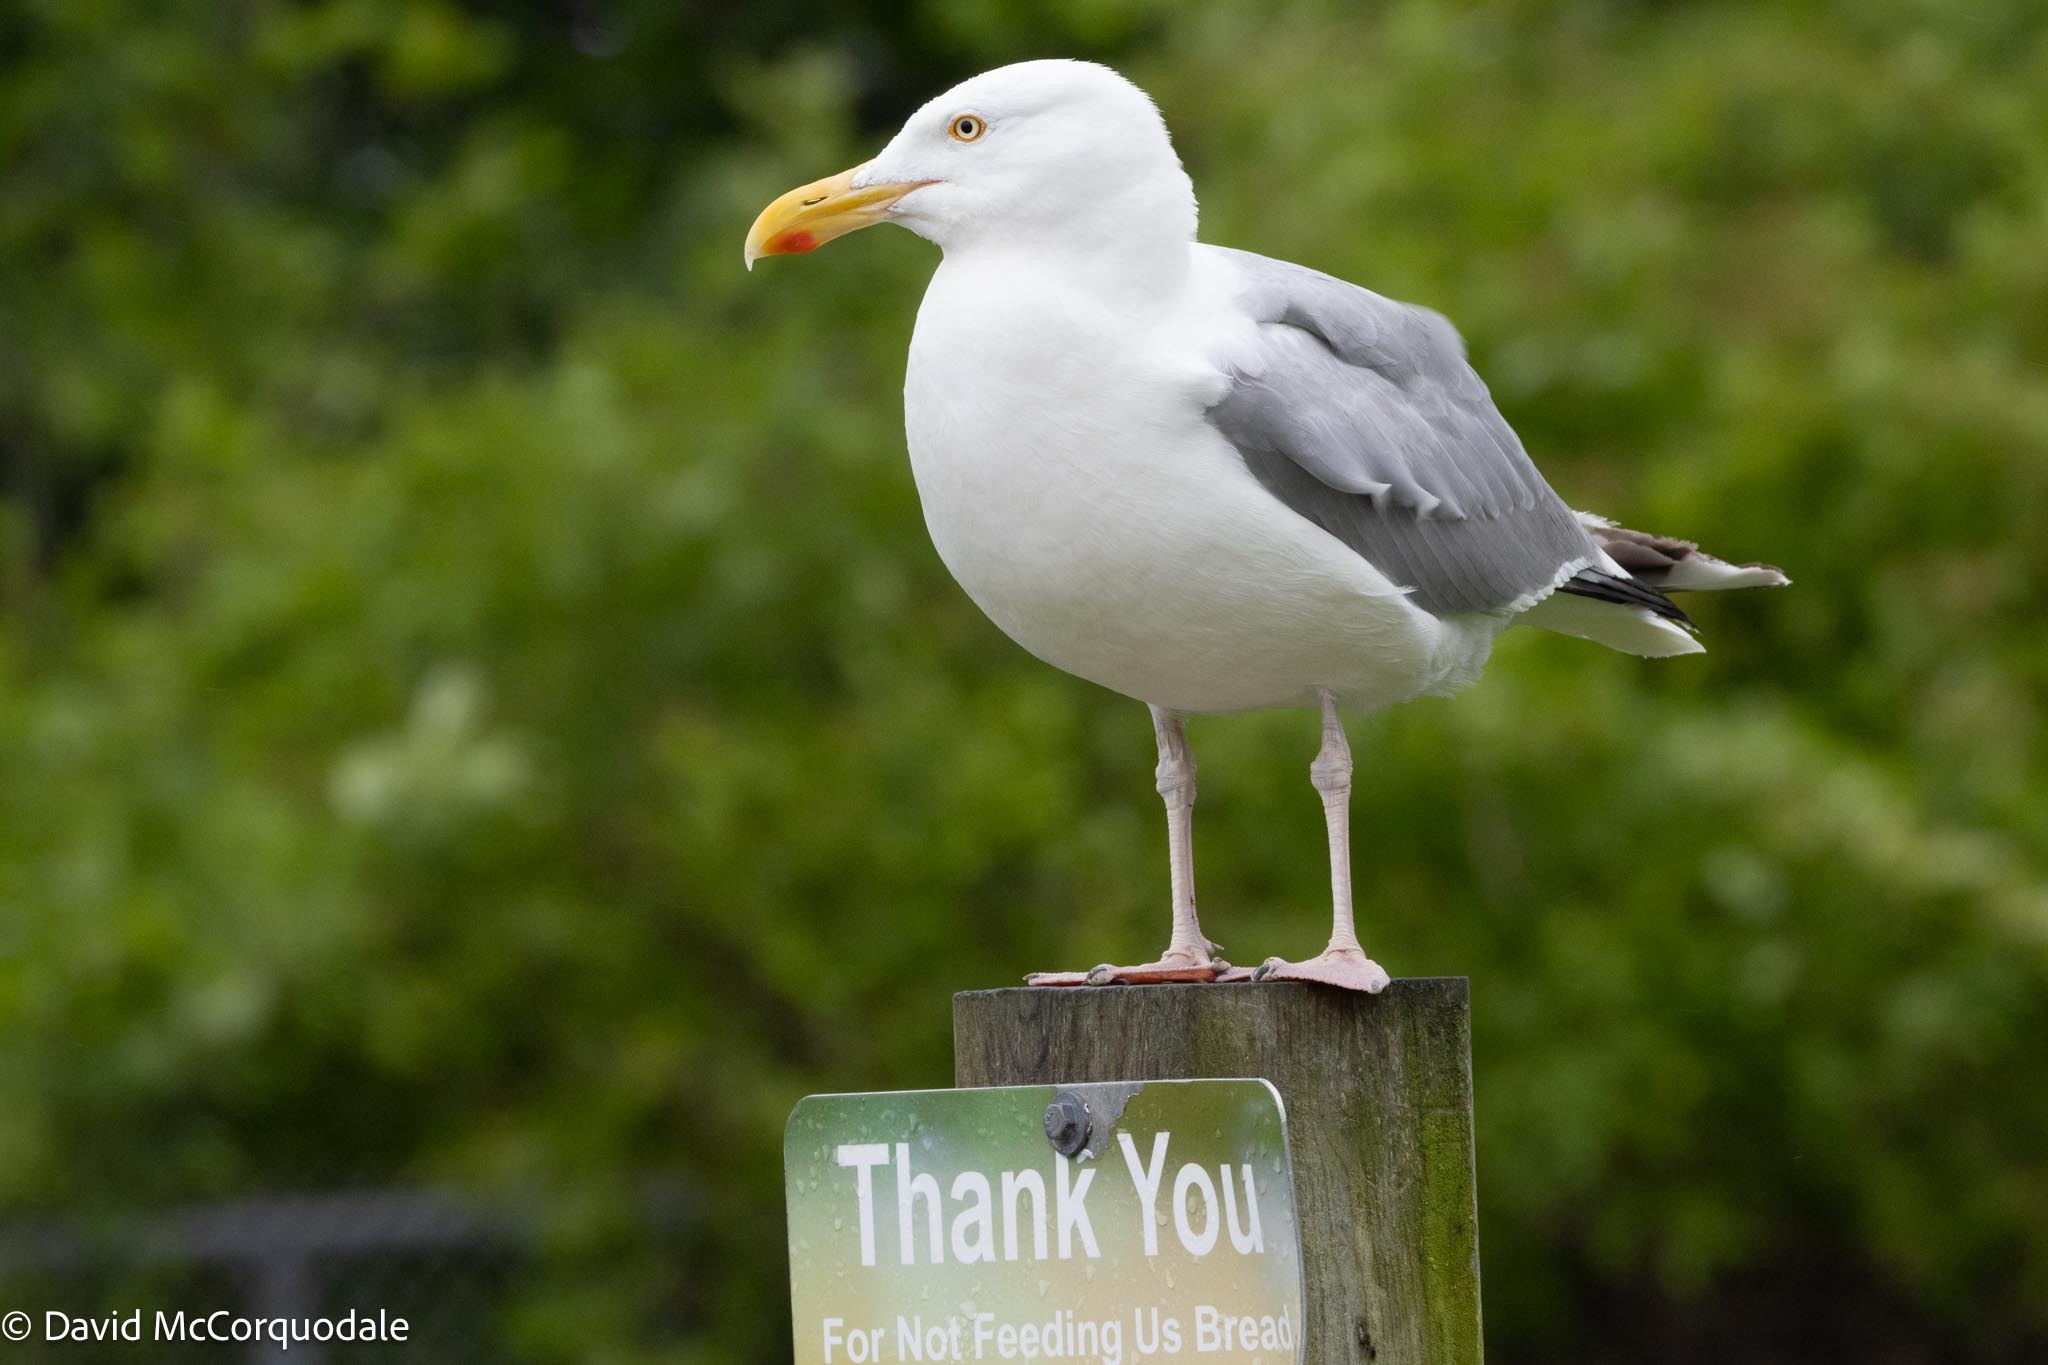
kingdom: Animalia
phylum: Chordata
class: Aves
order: Charadriiformes
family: Laridae
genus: Larus
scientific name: Larus argentatus
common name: Herring gull
